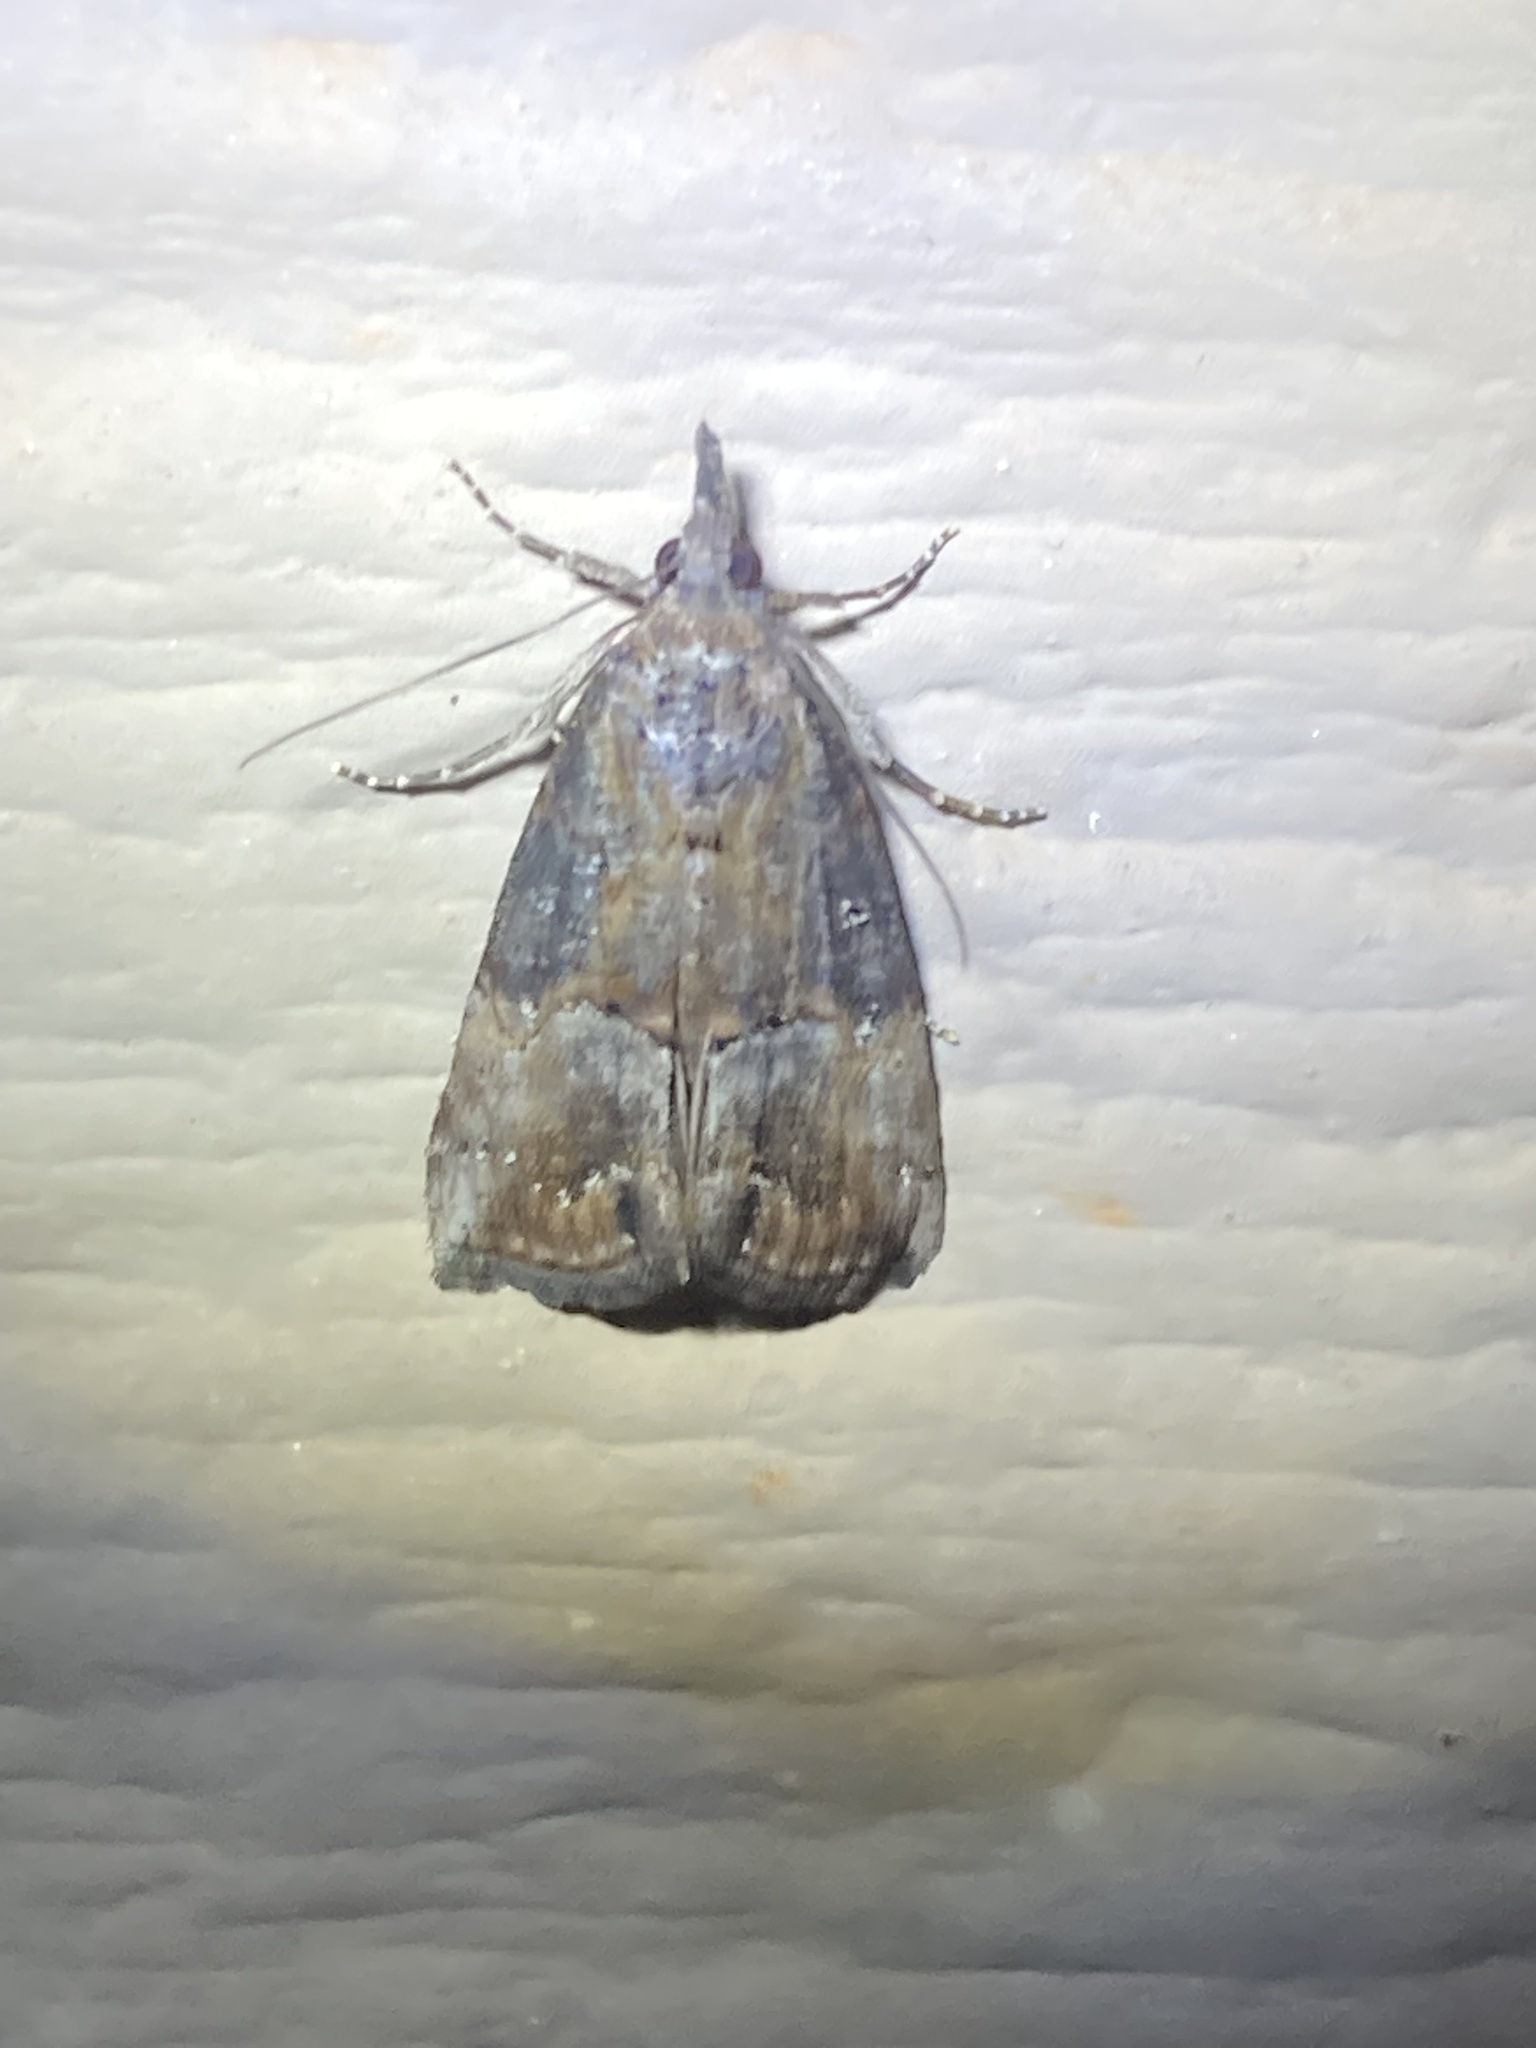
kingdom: Animalia
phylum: Arthropoda
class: Insecta
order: Lepidoptera
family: Erebidae
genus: Hypena
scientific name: Hypena scabra
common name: Green cloverworm
